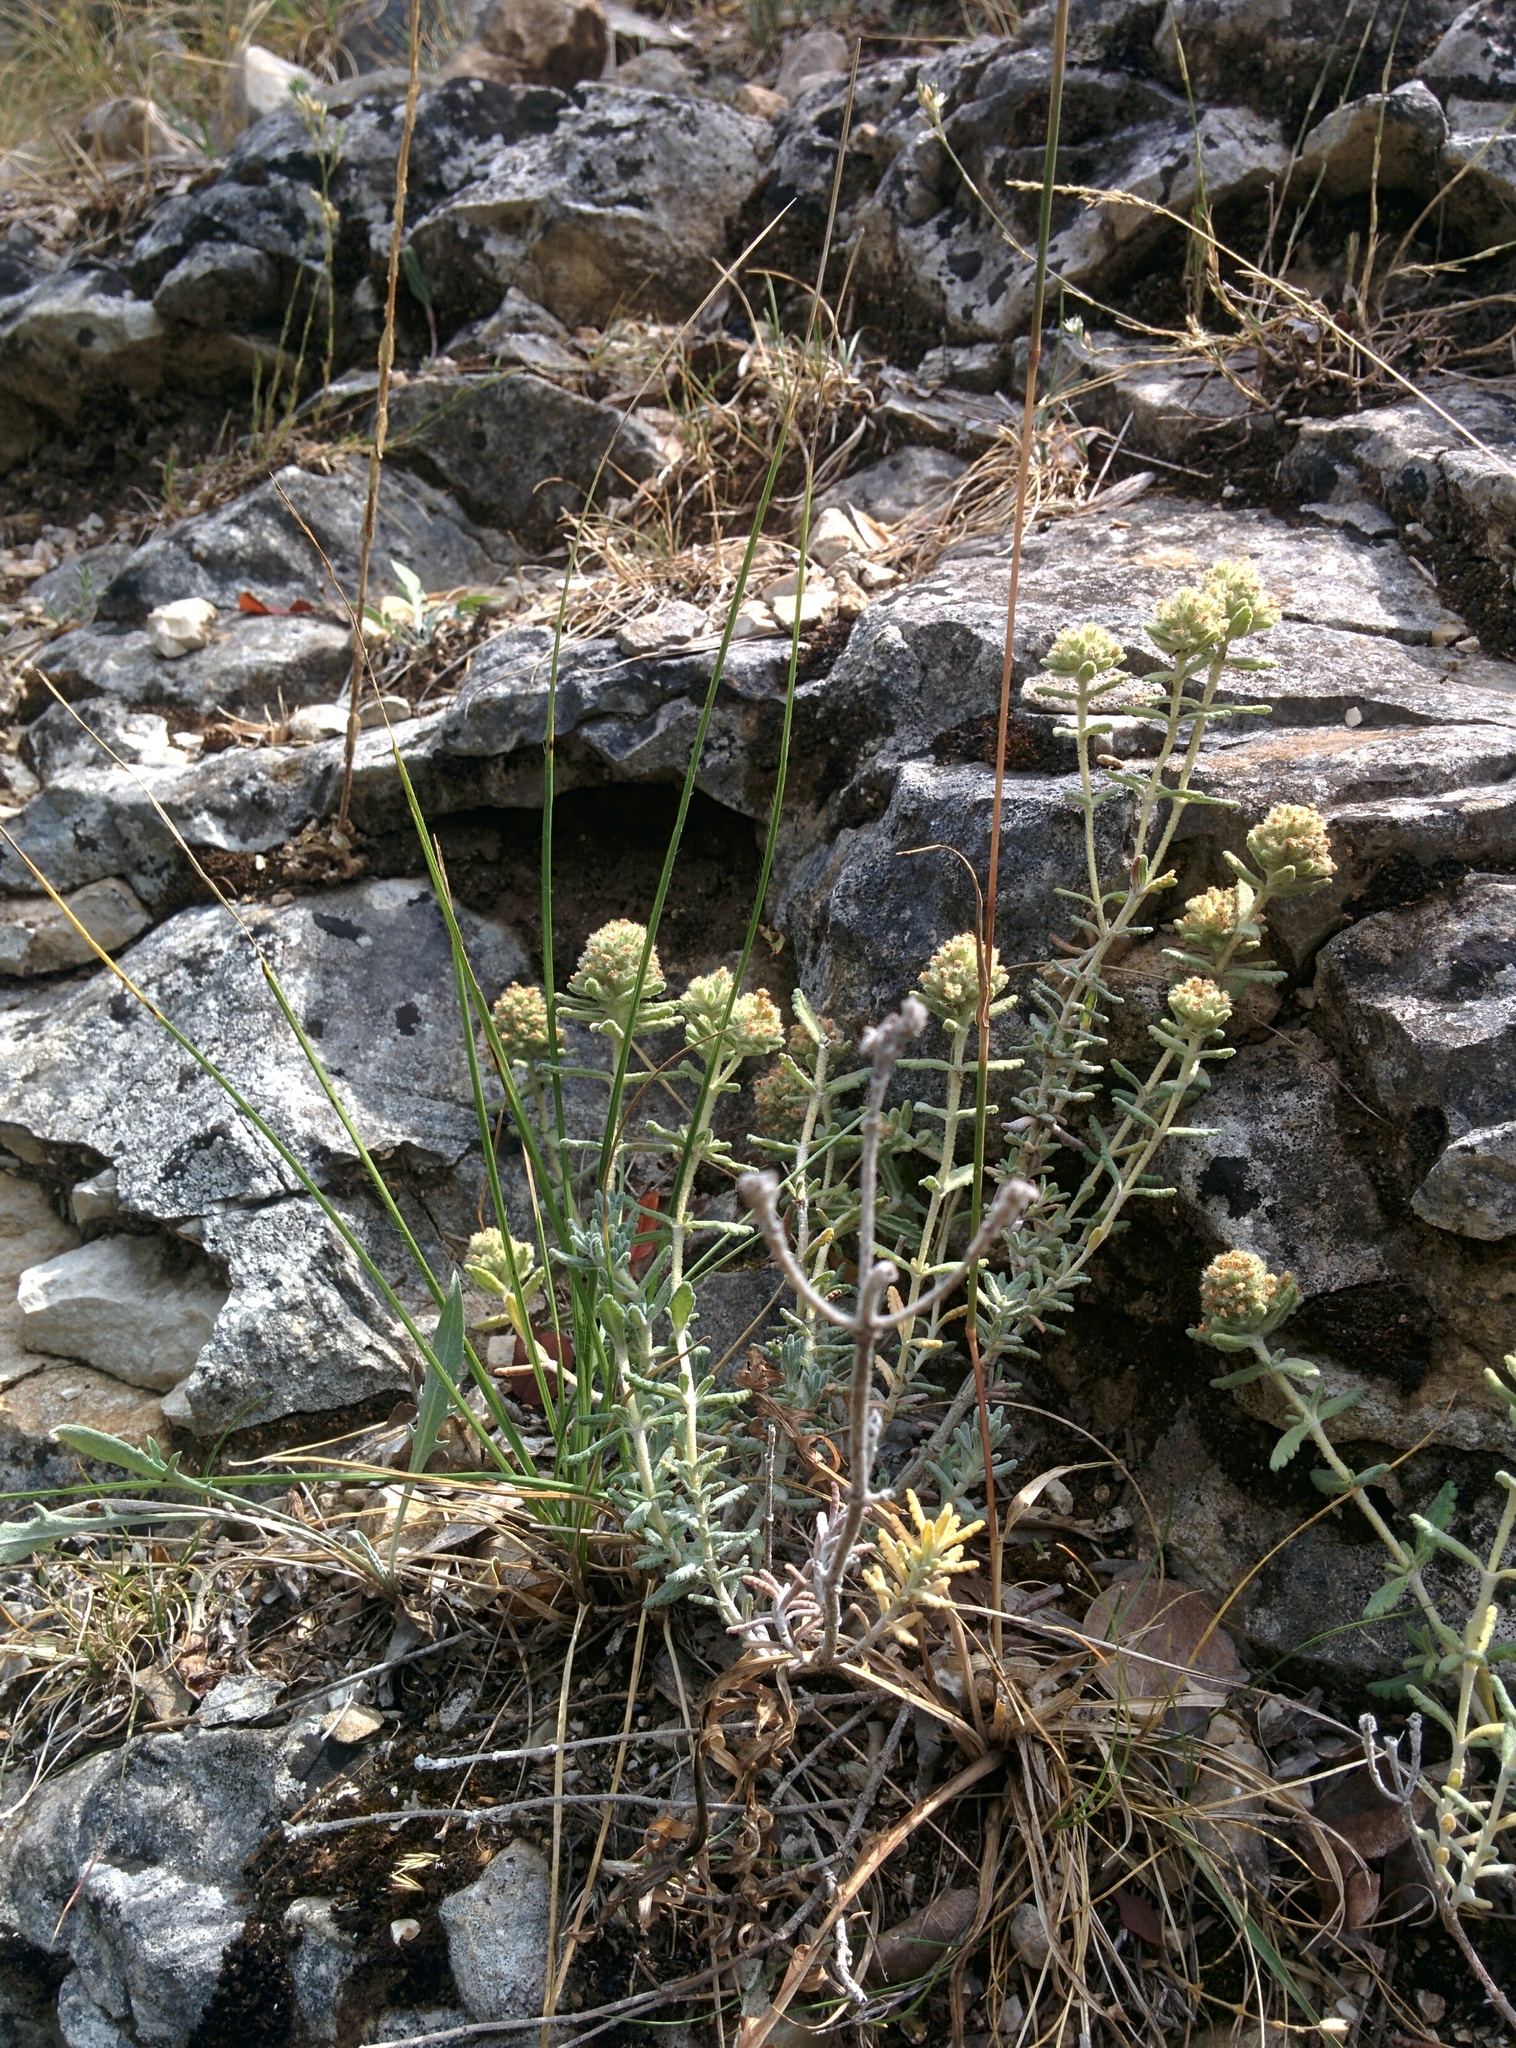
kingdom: Plantae
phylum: Tracheophyta
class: Magnoliopsida
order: Lamiales
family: Lamiaceae
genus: Teucrium
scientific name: Teucrium polium
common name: Poley
